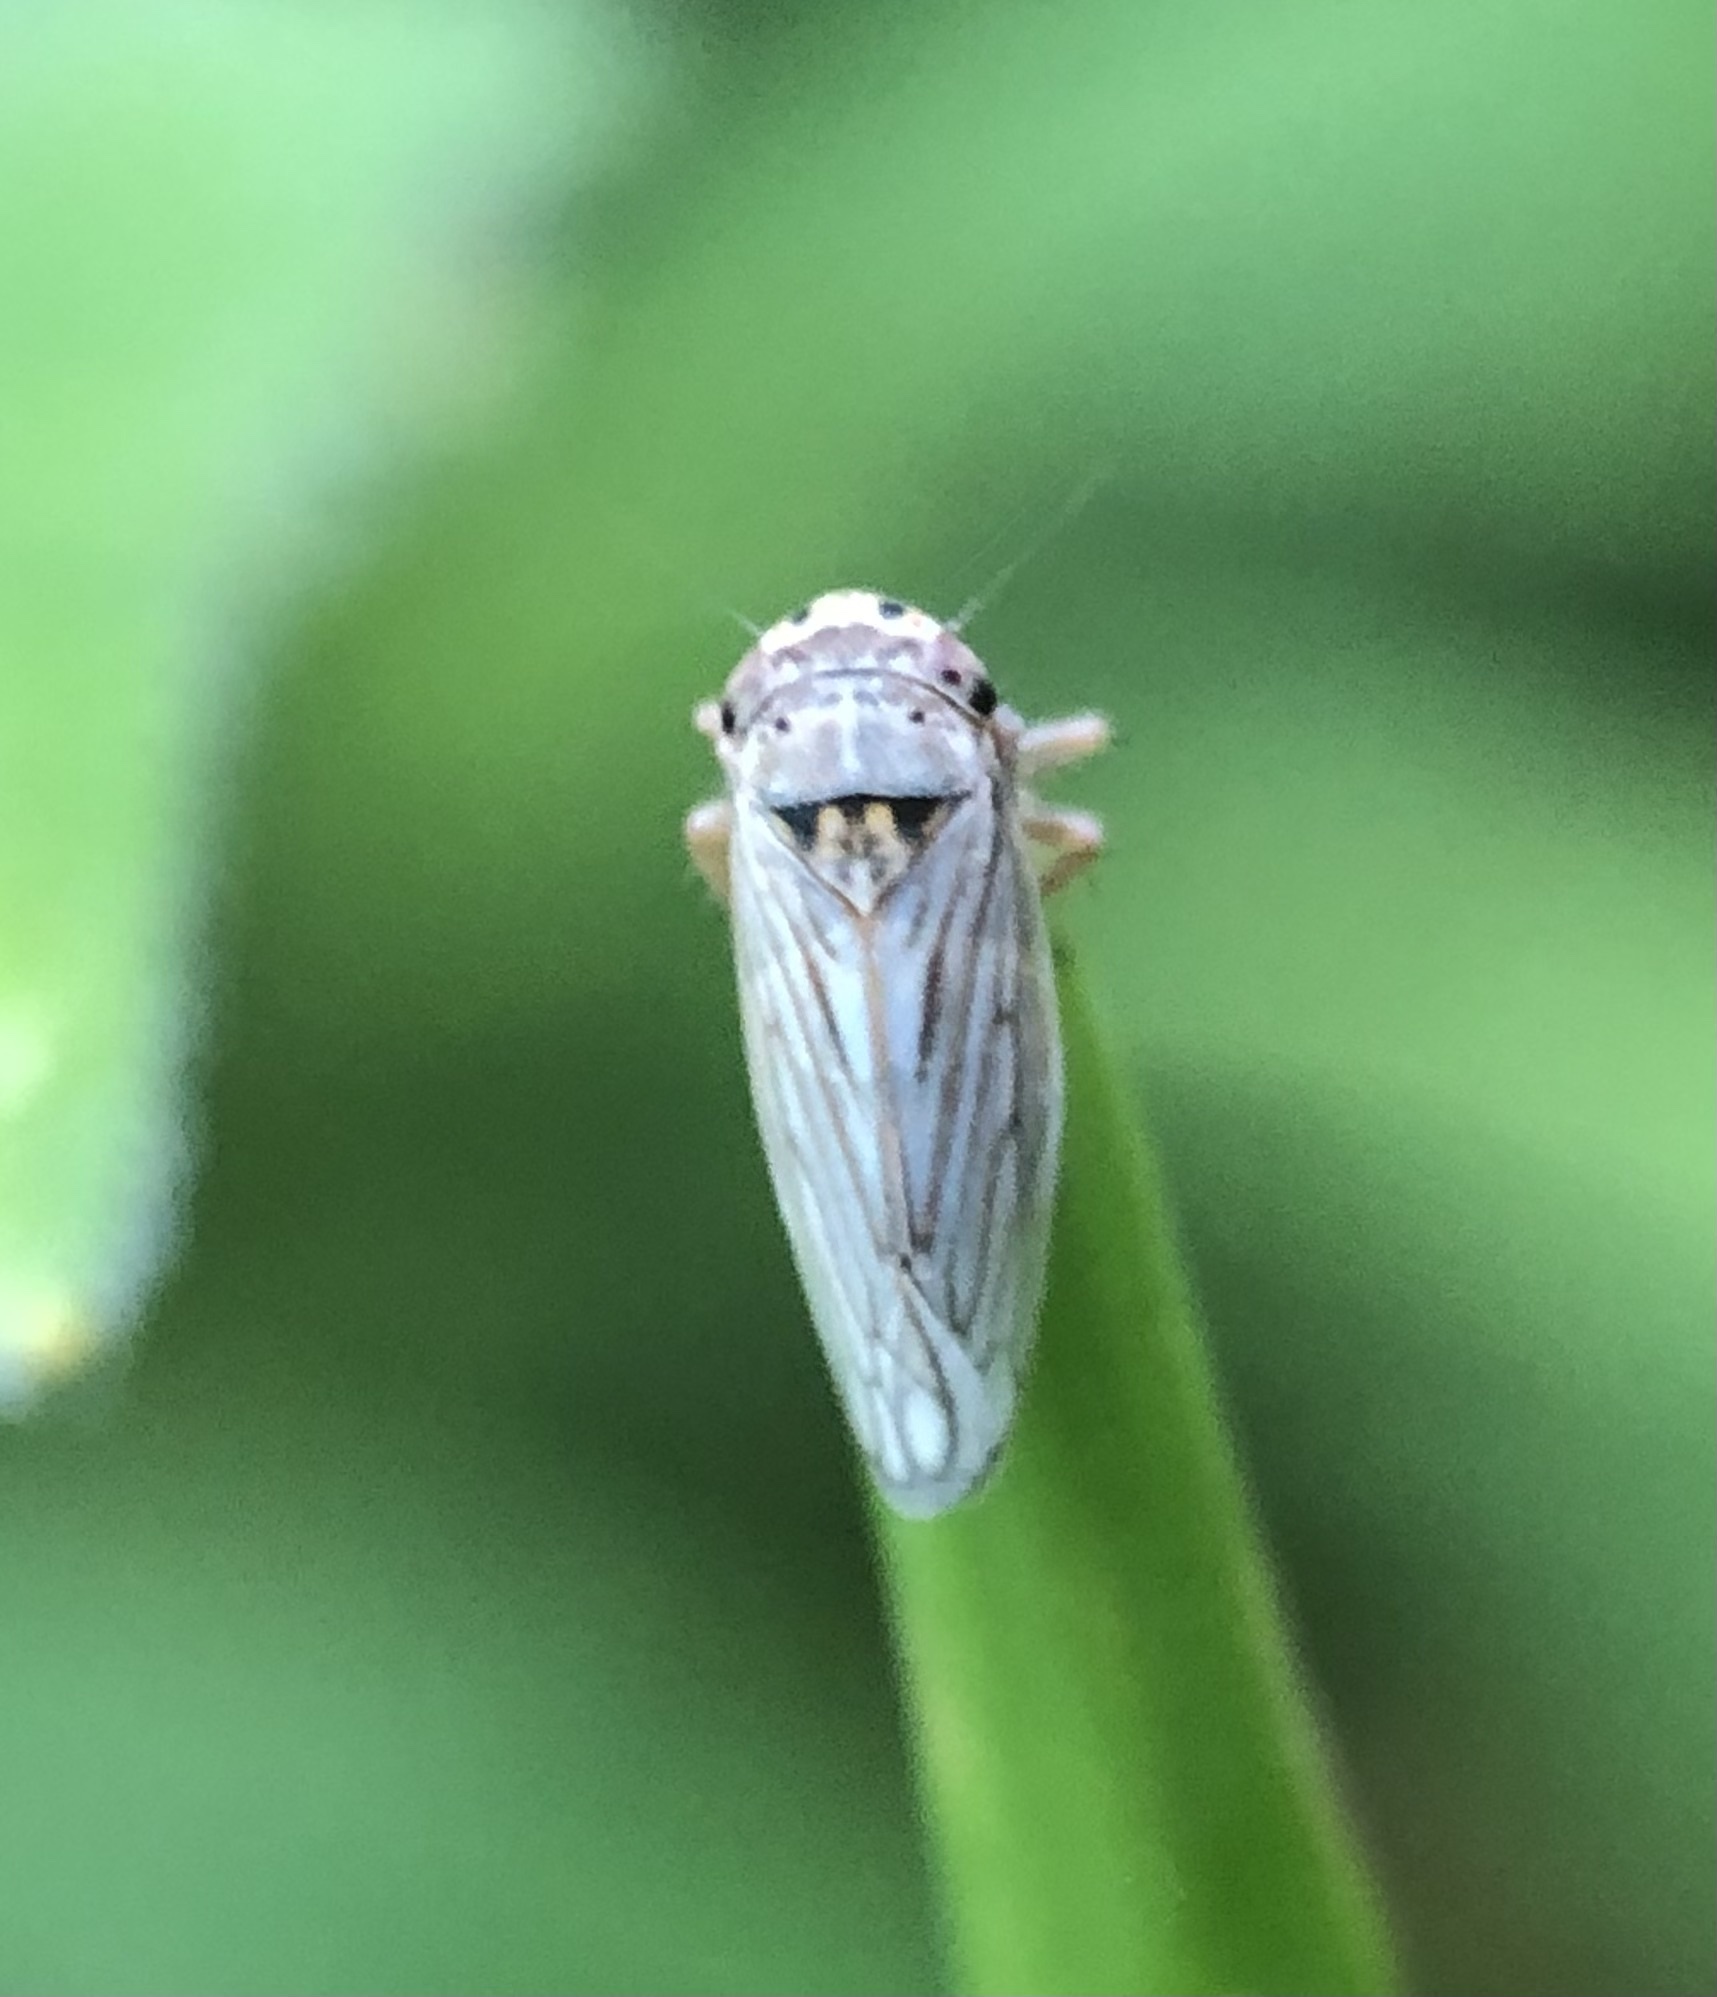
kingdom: Animalia
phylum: Arthropoda
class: Insecta
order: Hemiptera
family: Cicadellidae
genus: Exitianus
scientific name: Exitianus exitiosus
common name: Gray lawn leafhopper
